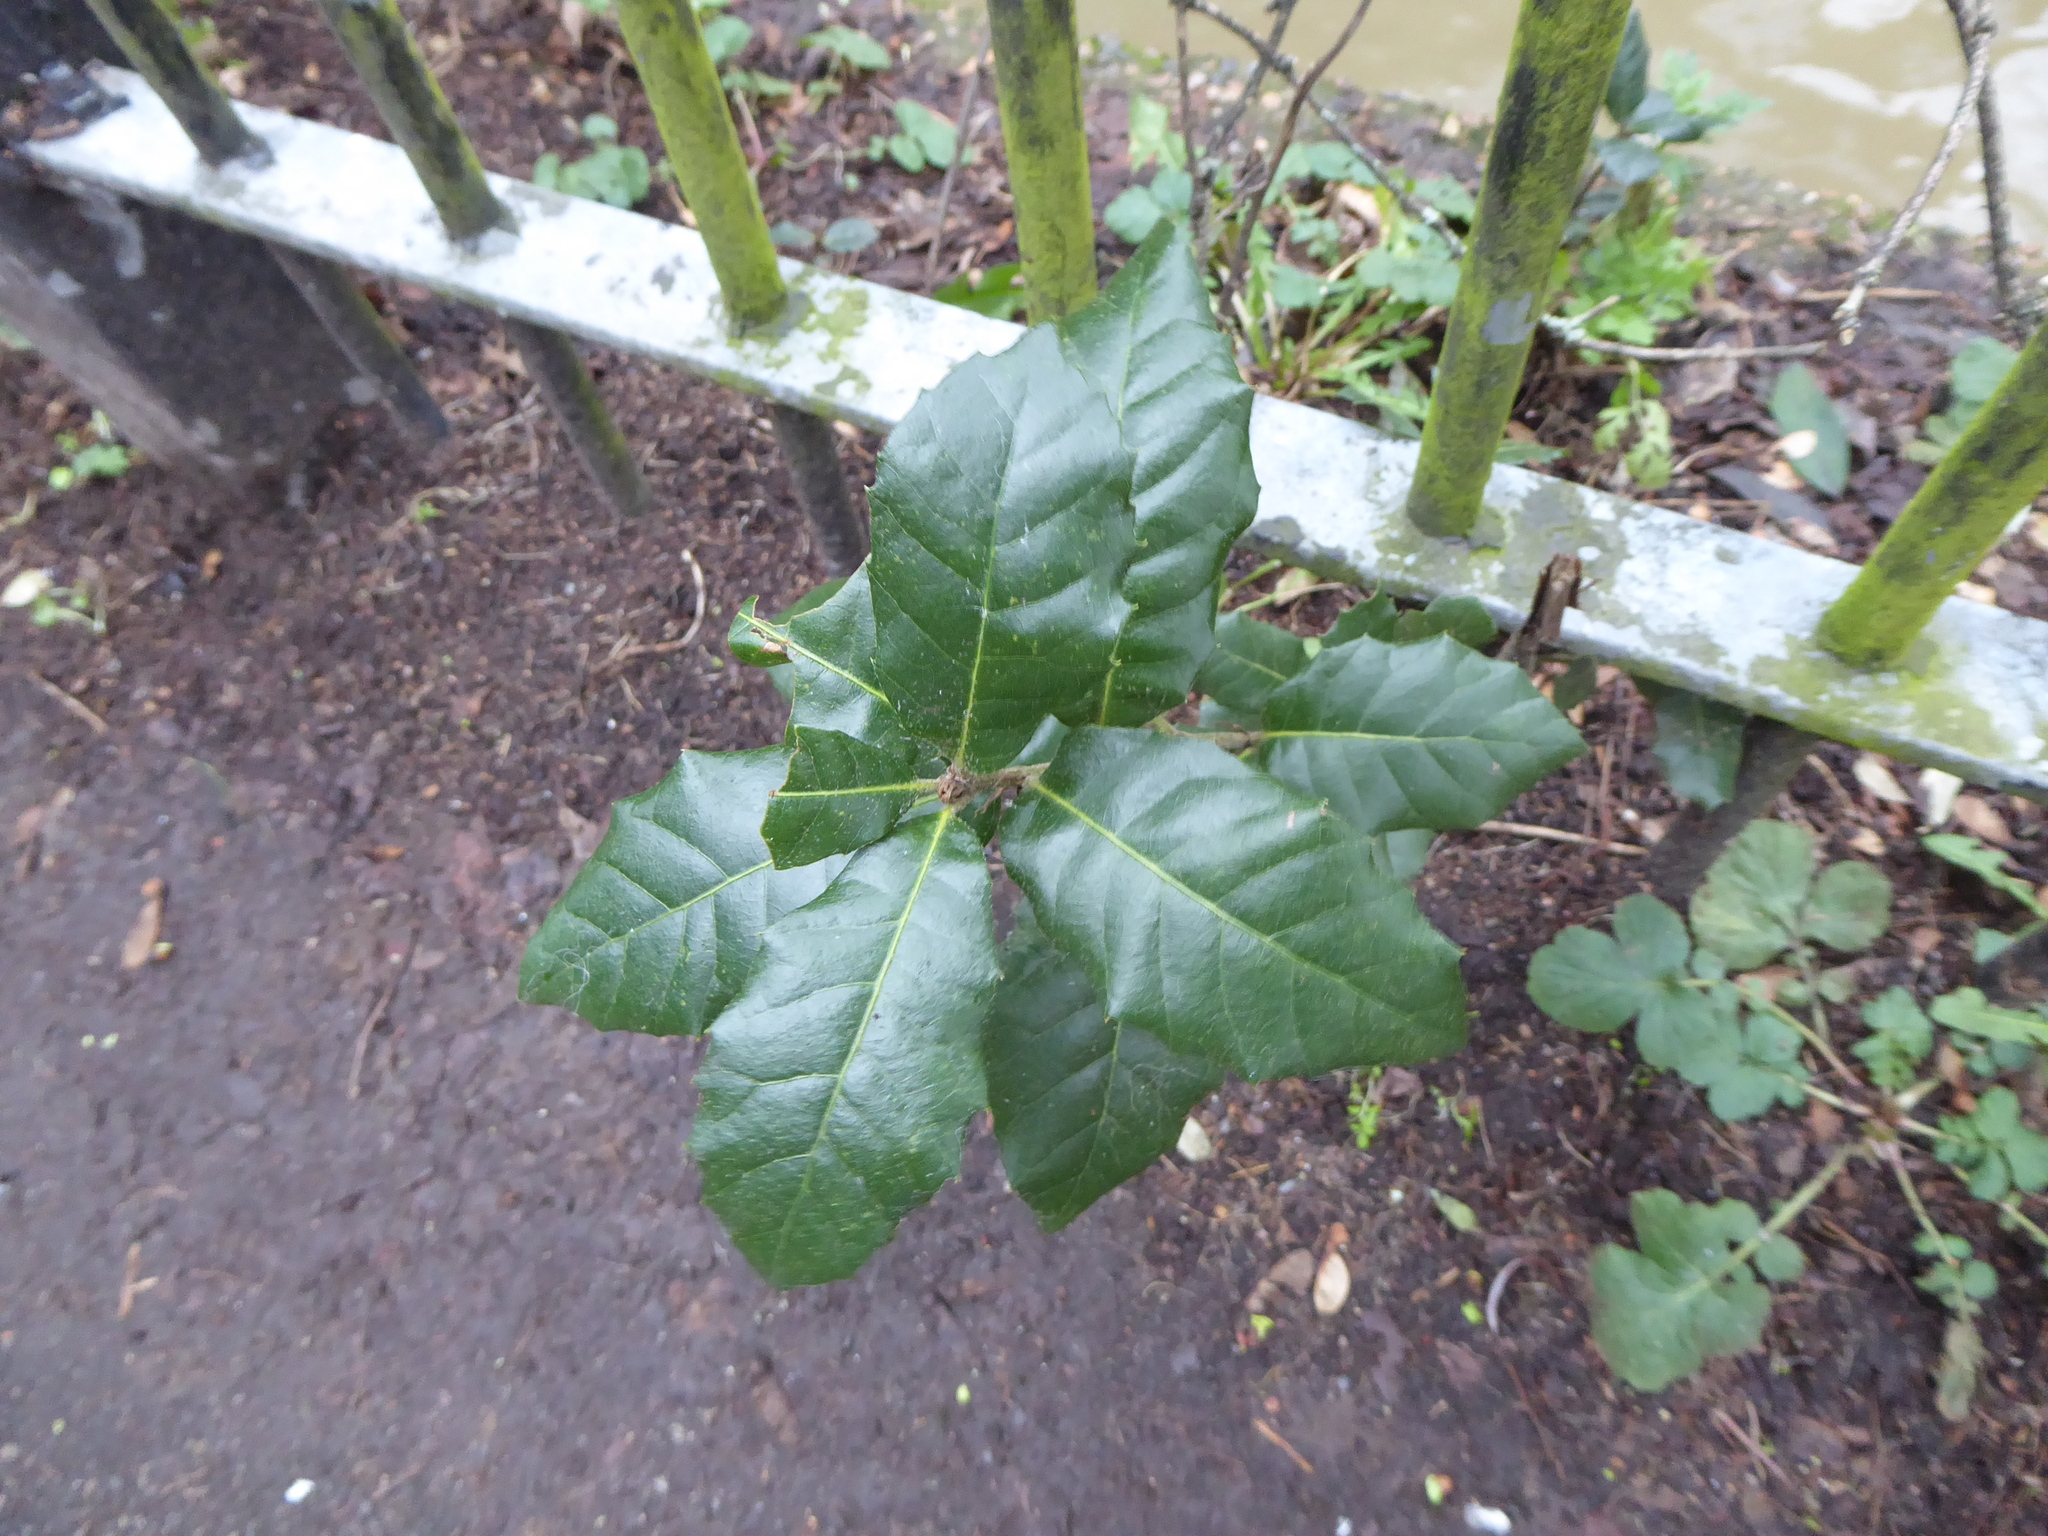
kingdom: Plantae
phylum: Tracheophyta
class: Magnoliopsida
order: Fagales
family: Fagaceae
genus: Quercus
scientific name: Quercus ilex
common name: Evergreen oak
